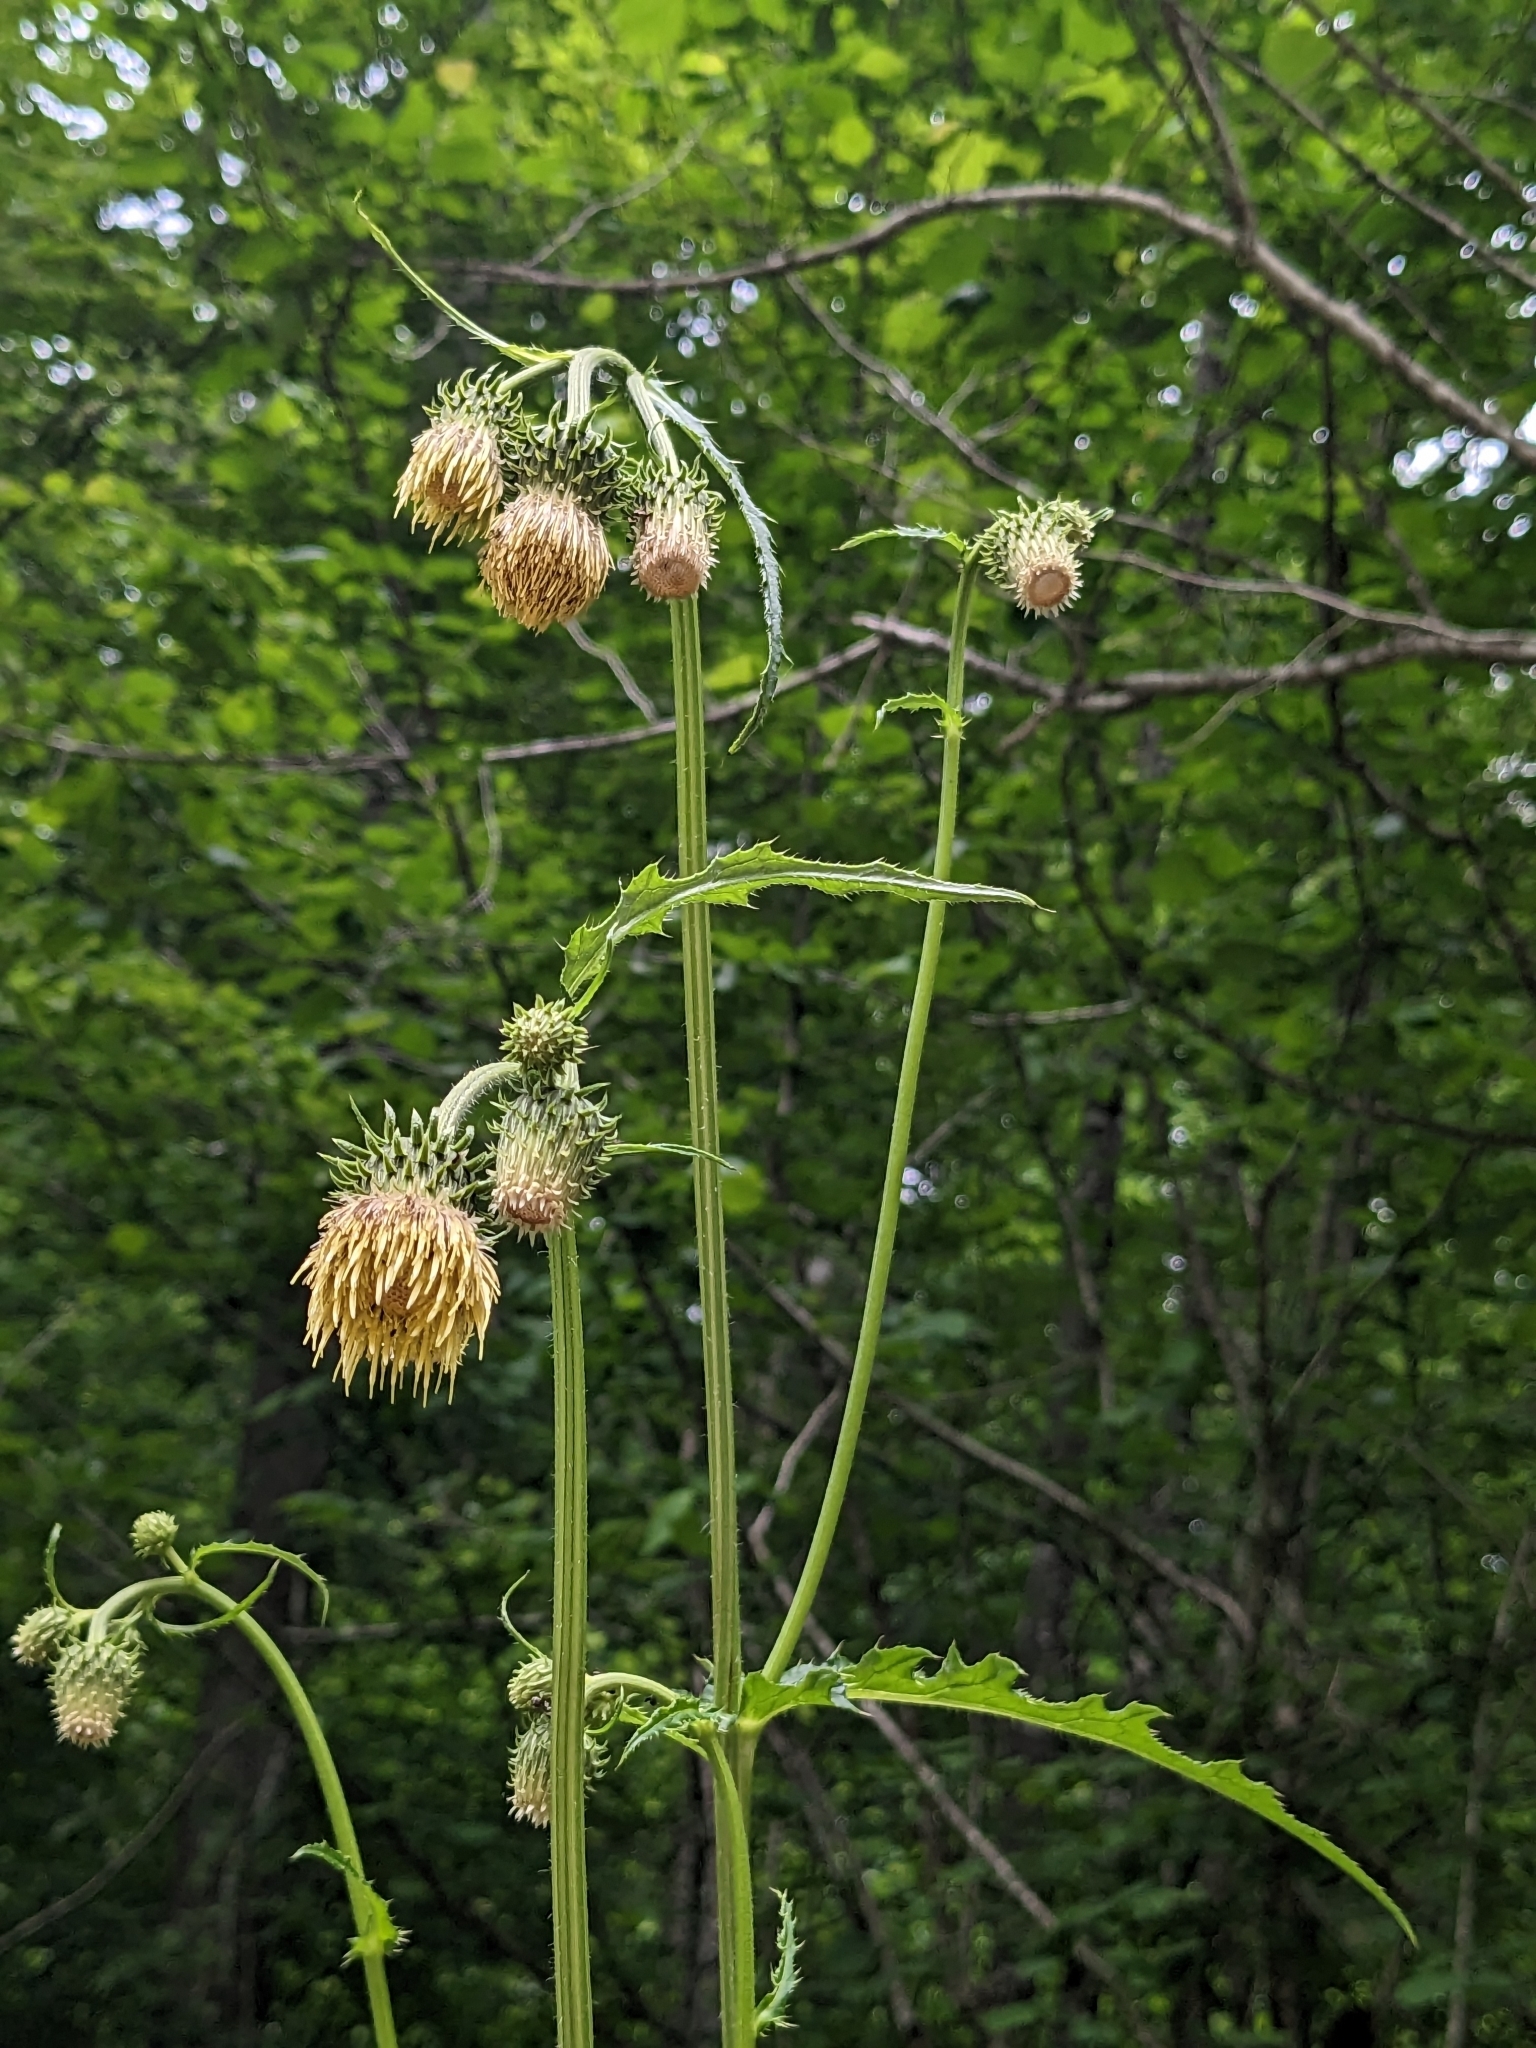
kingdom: Plantae
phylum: Tracheophyta
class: Magnoliopsida
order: Asterales
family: Asteraceae
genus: Cirsium
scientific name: Cirsium erisithales
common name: Yellow thistle
